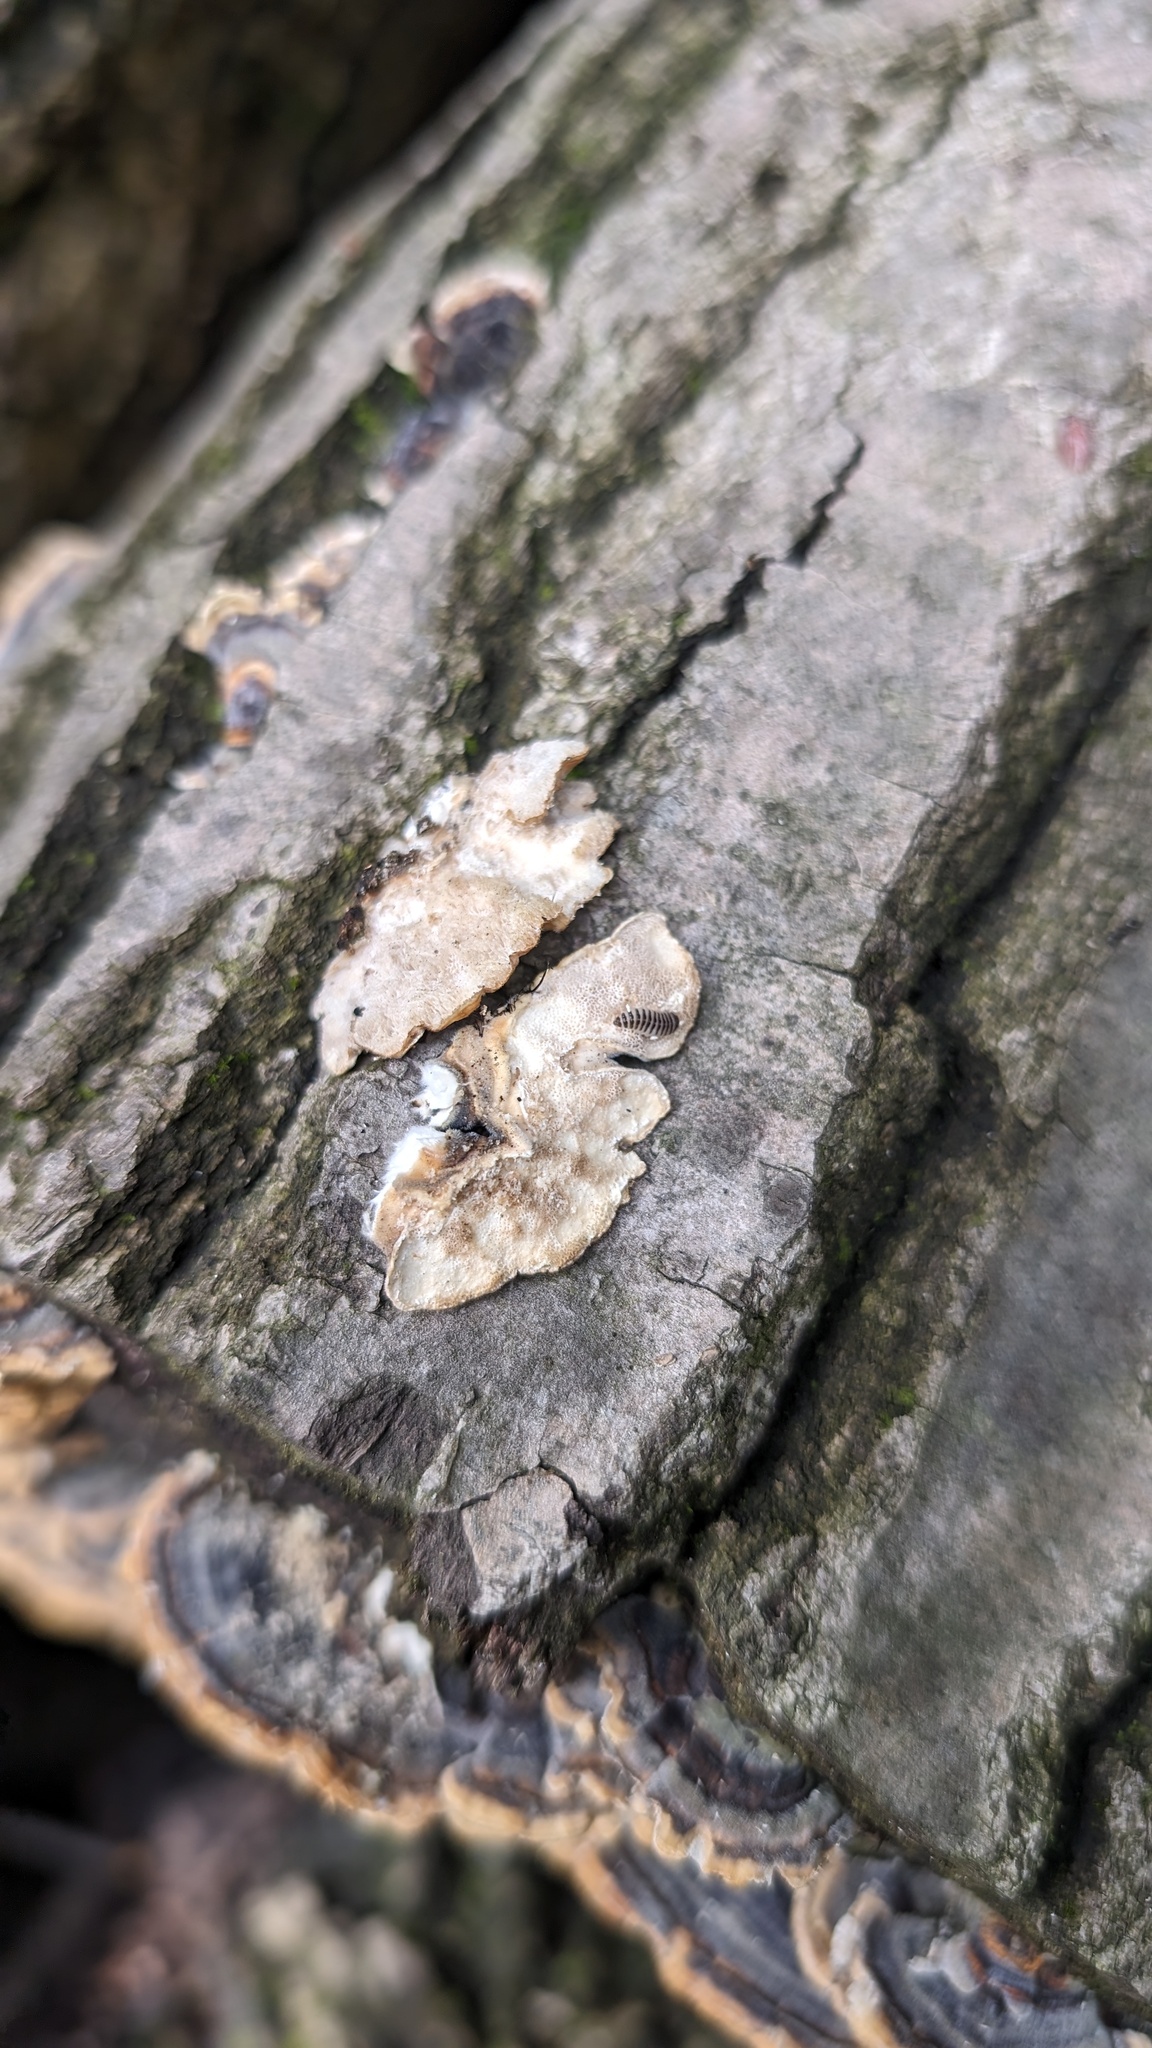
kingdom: Fungi
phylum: Basidiomycota
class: Agaricomycetes
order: Polyporales
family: Polyporaceae
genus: Trametes
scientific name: Trametes versicolor
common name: Turkeytail
